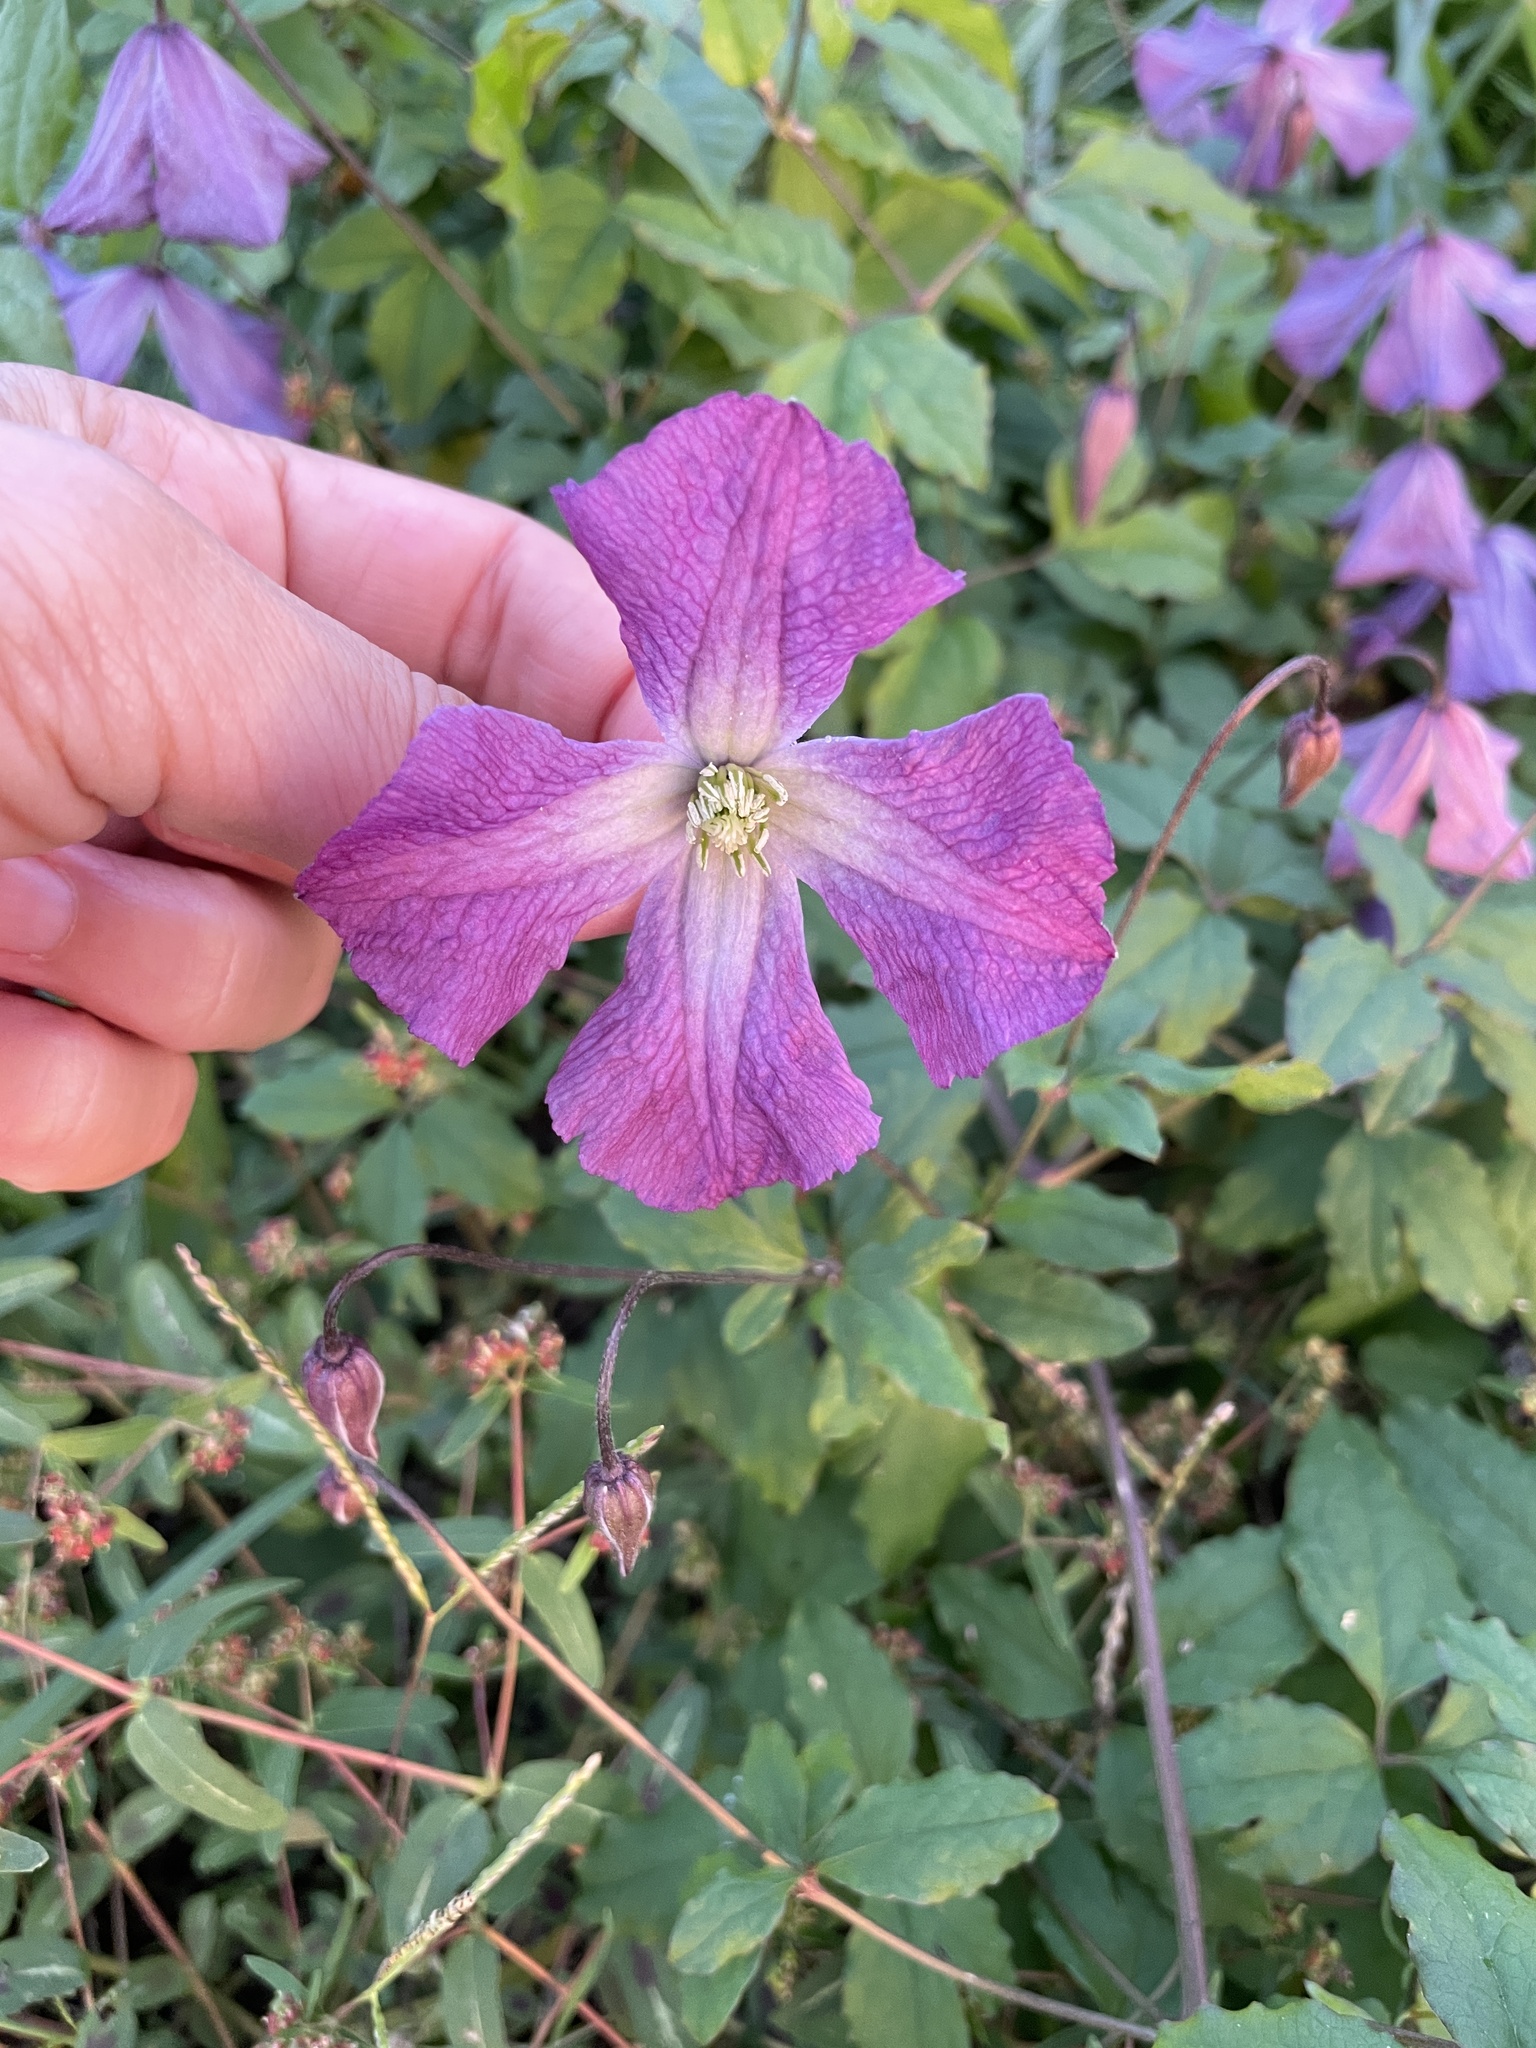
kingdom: Plantae
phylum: Tracheophyta
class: Magnoliopsida
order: Ranunculales
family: Ranunculaceae
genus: Clematis
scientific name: Clematis viticella
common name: Purple clematis
